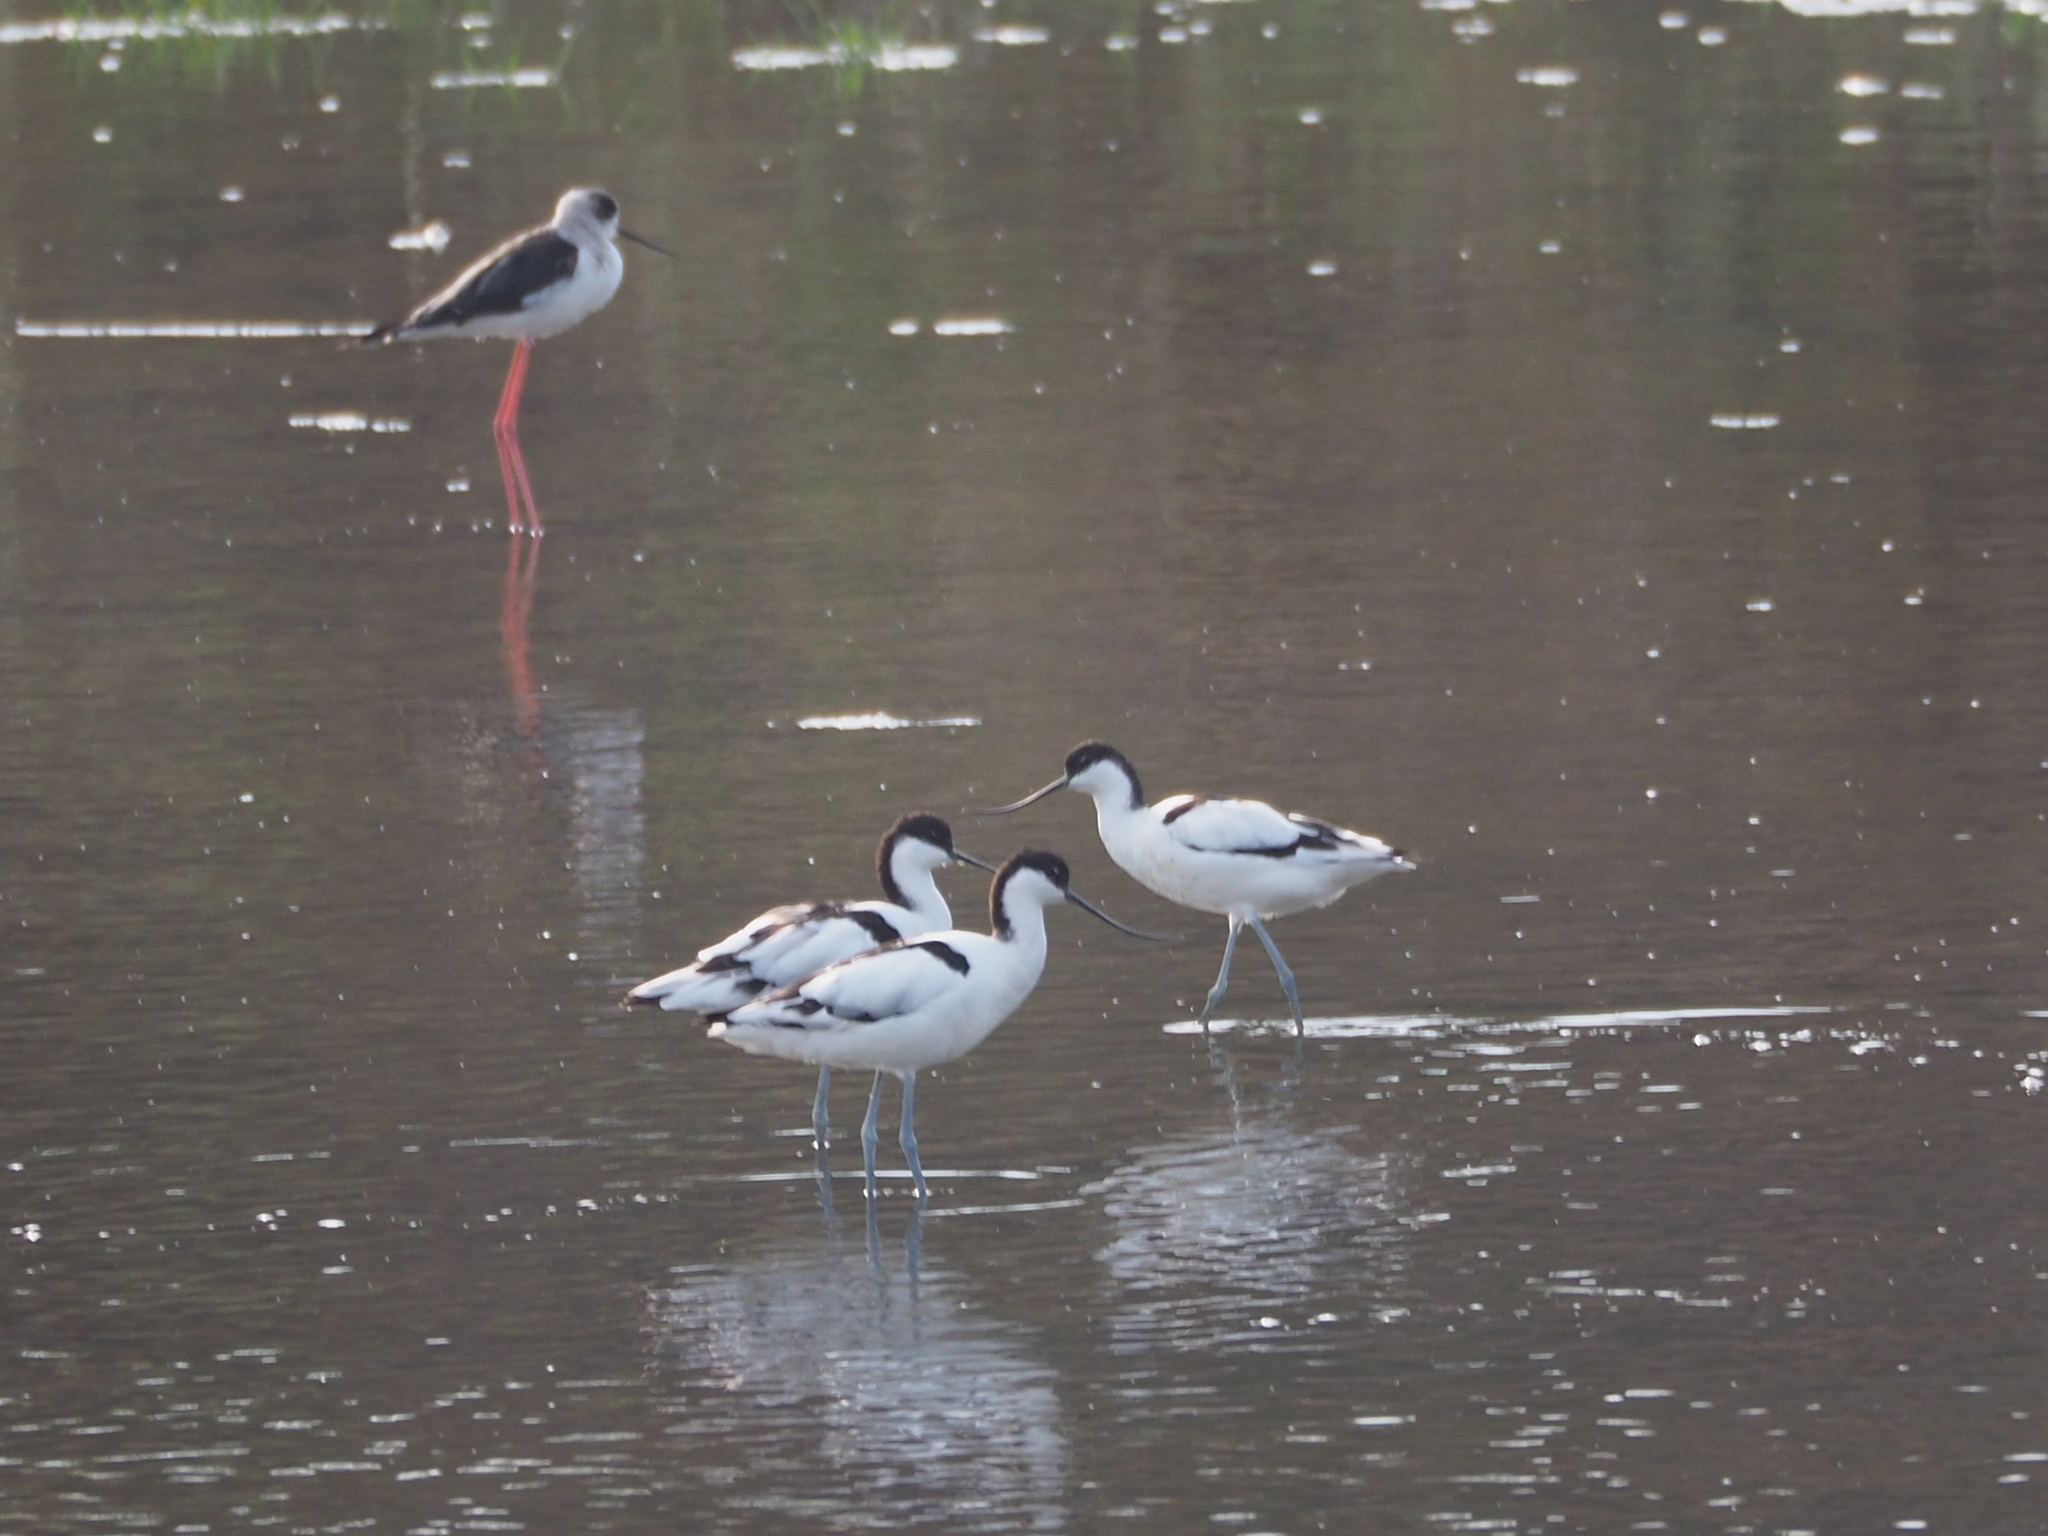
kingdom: Animalia
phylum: Chordata
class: Aves
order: Charadriiformes
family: Recurvirostridae
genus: Recurvirostra
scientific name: Recurvirostra avosetta
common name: Pied avocet
